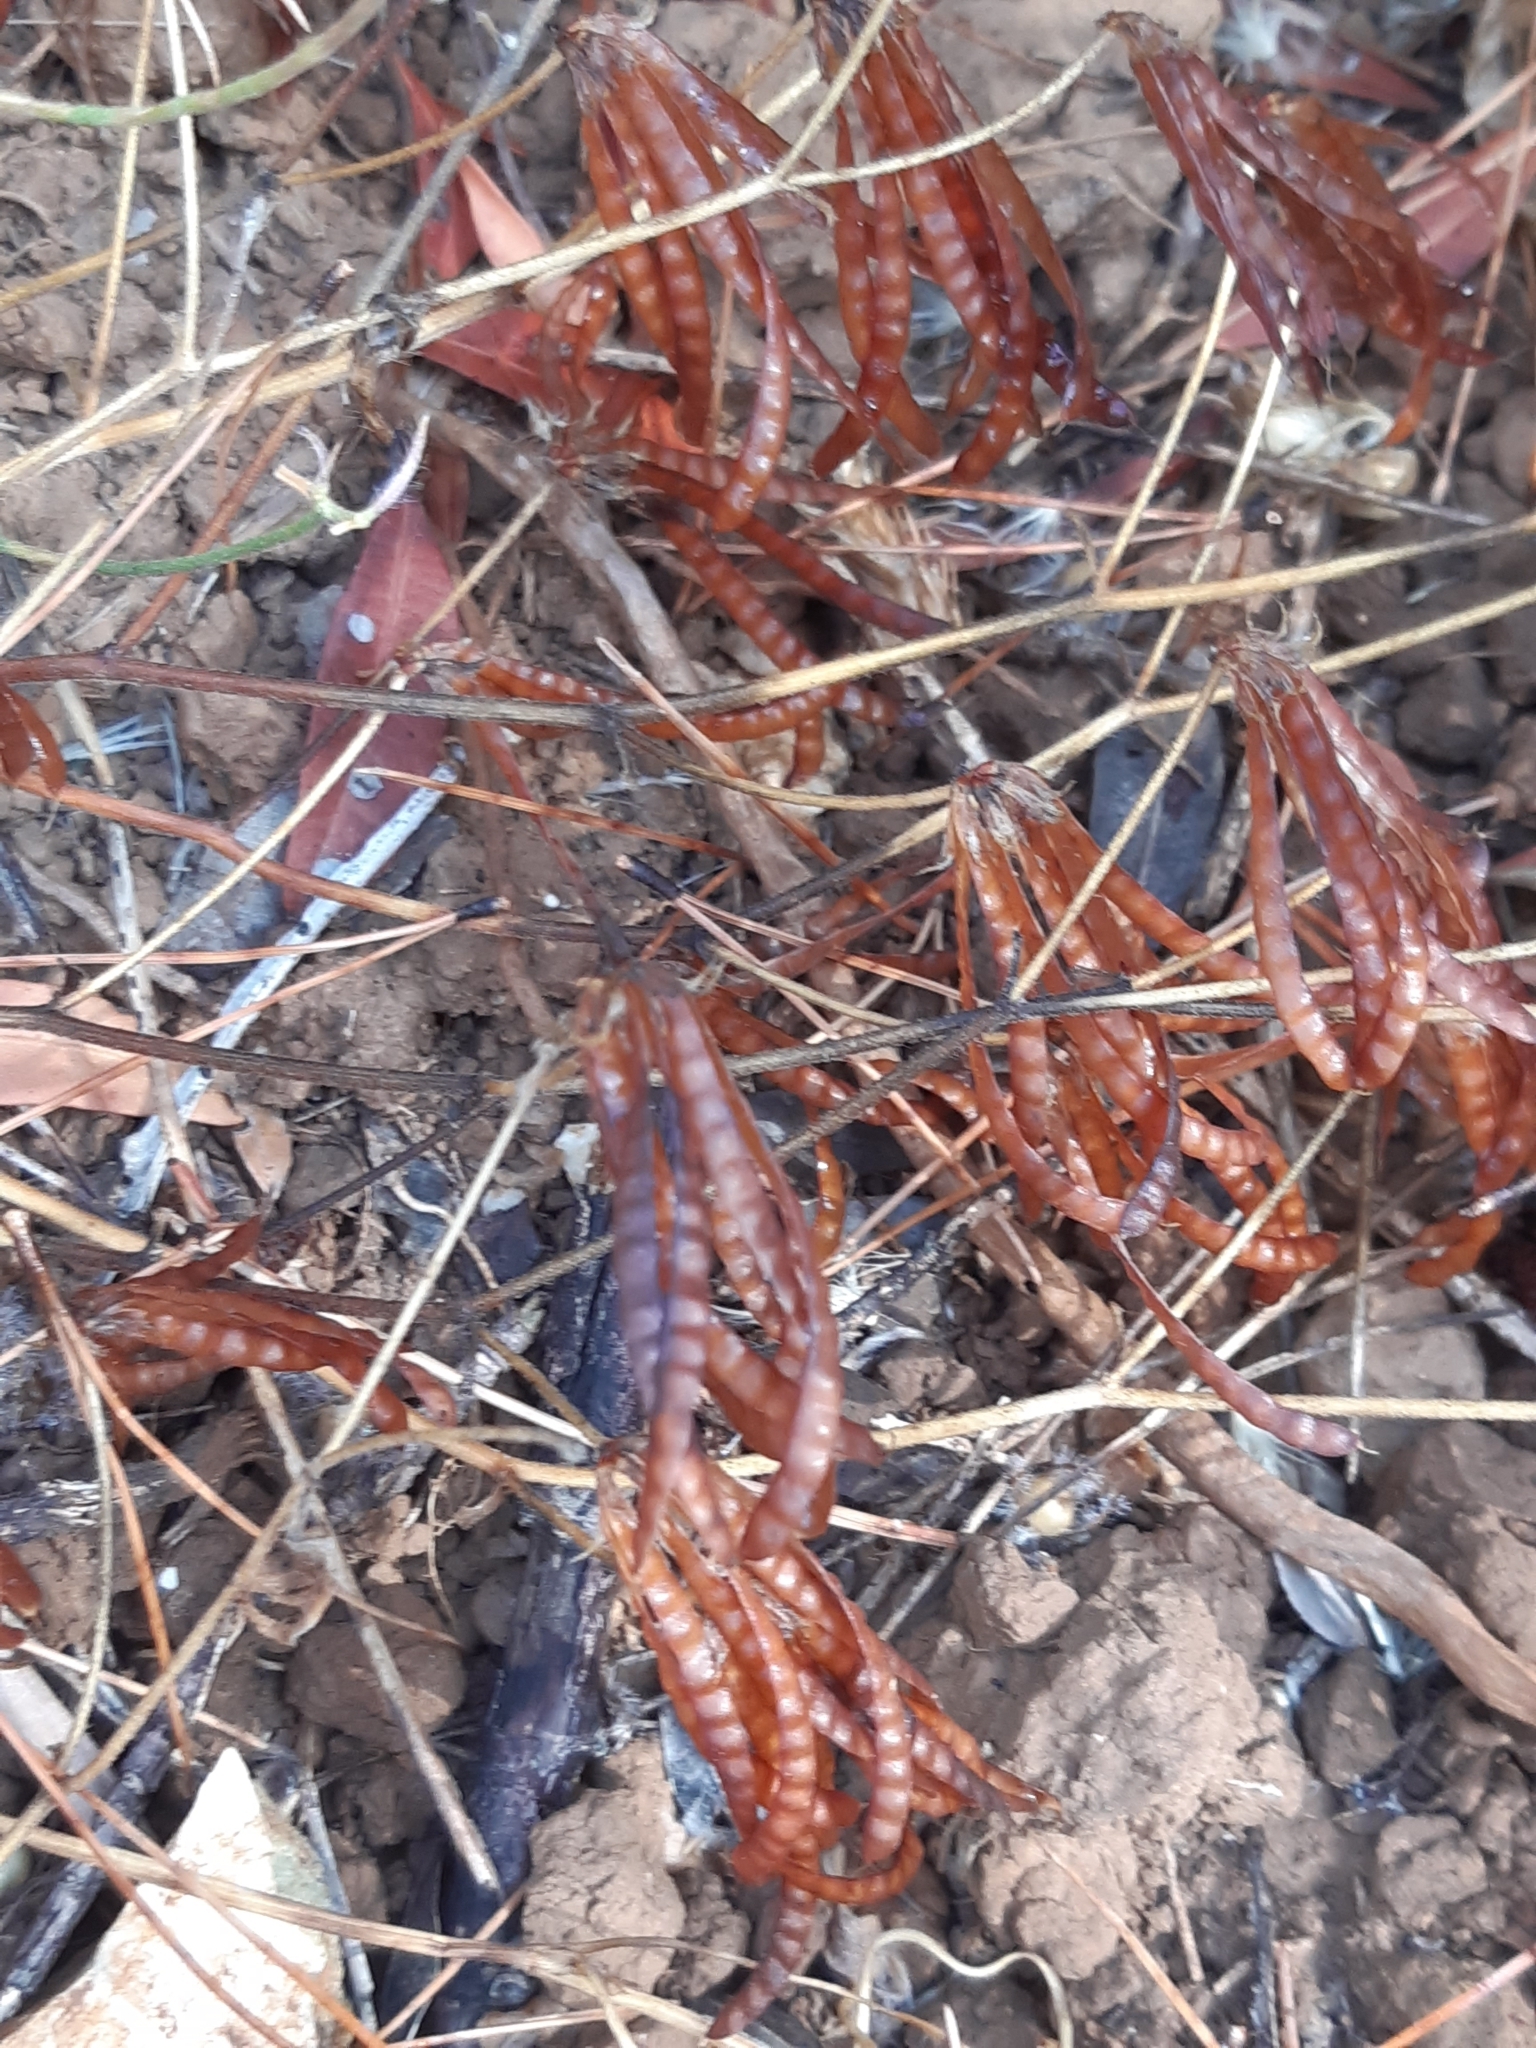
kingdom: Plantae
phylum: Tracheophyta
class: Magnoliopsida
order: Fabales
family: Fabaceae
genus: Lotus
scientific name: Lotus ornithopodioides
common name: Southern bird's-foot trefoil
